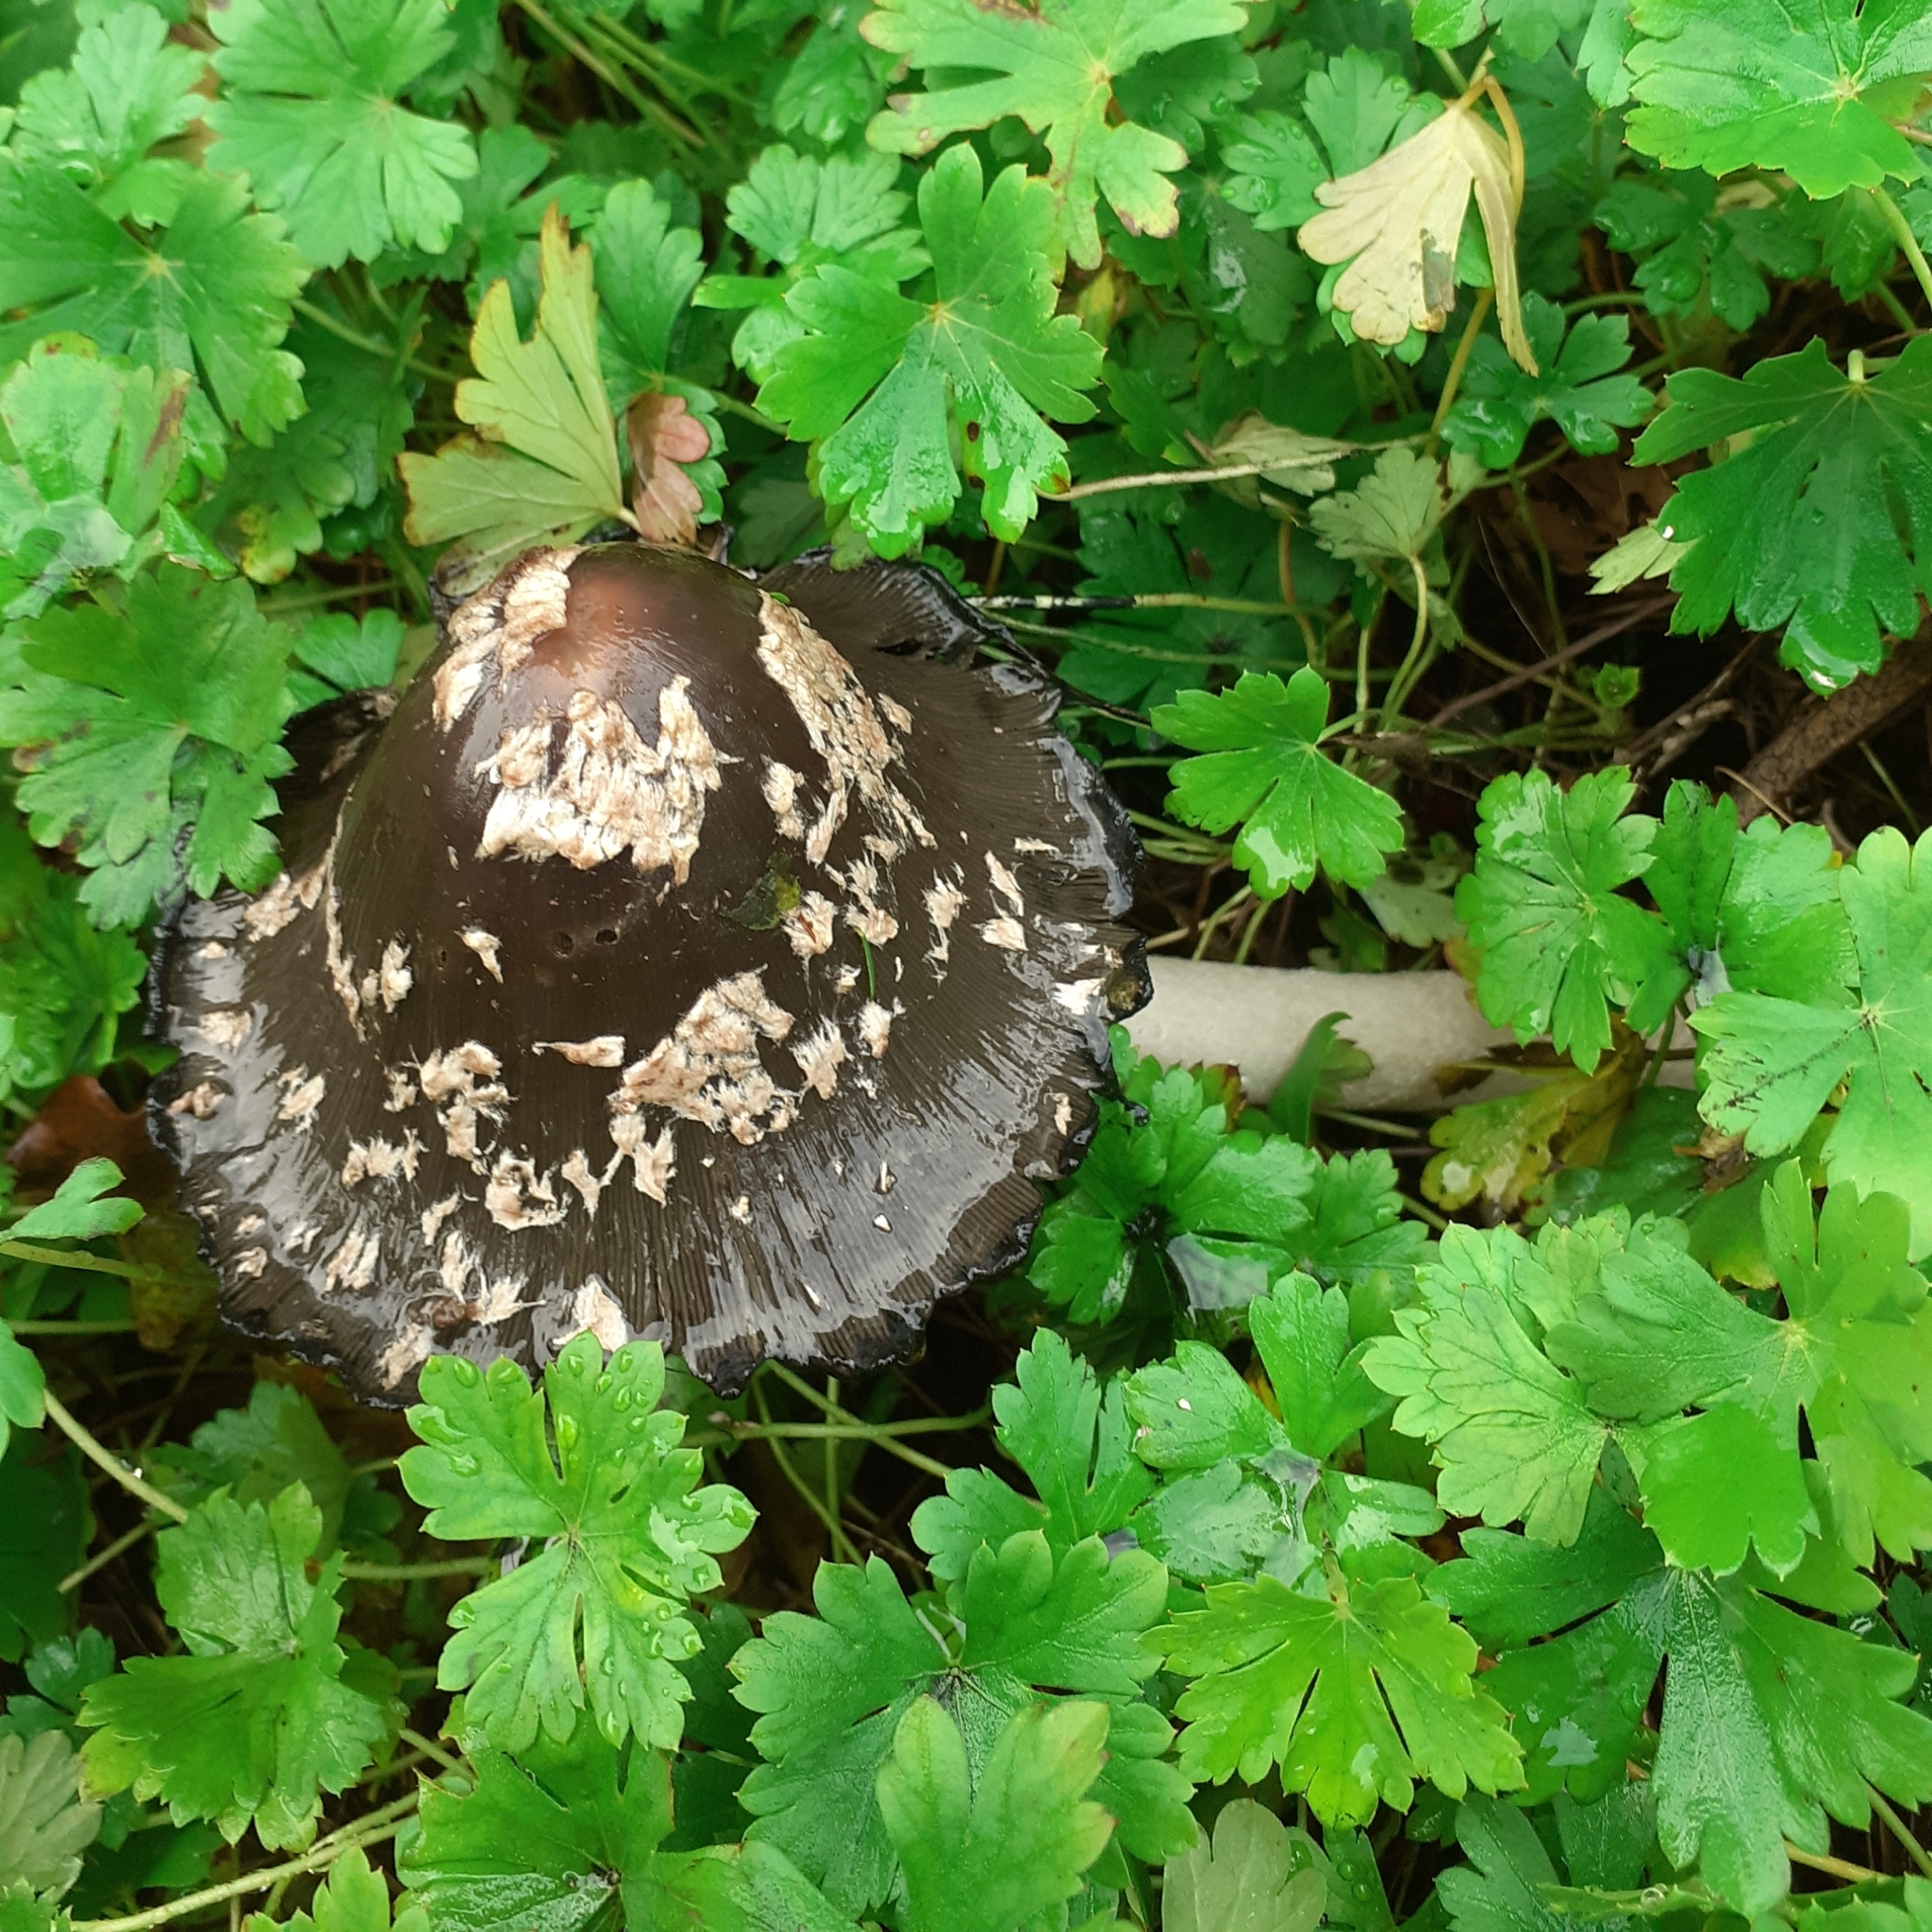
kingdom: Fungi
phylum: Basidiomycota
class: Agaricomycetes
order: Agaricales
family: Psathyrellaceae
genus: Coprinopsis
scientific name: Coprinopsis picacea
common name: Magpie inkcap
